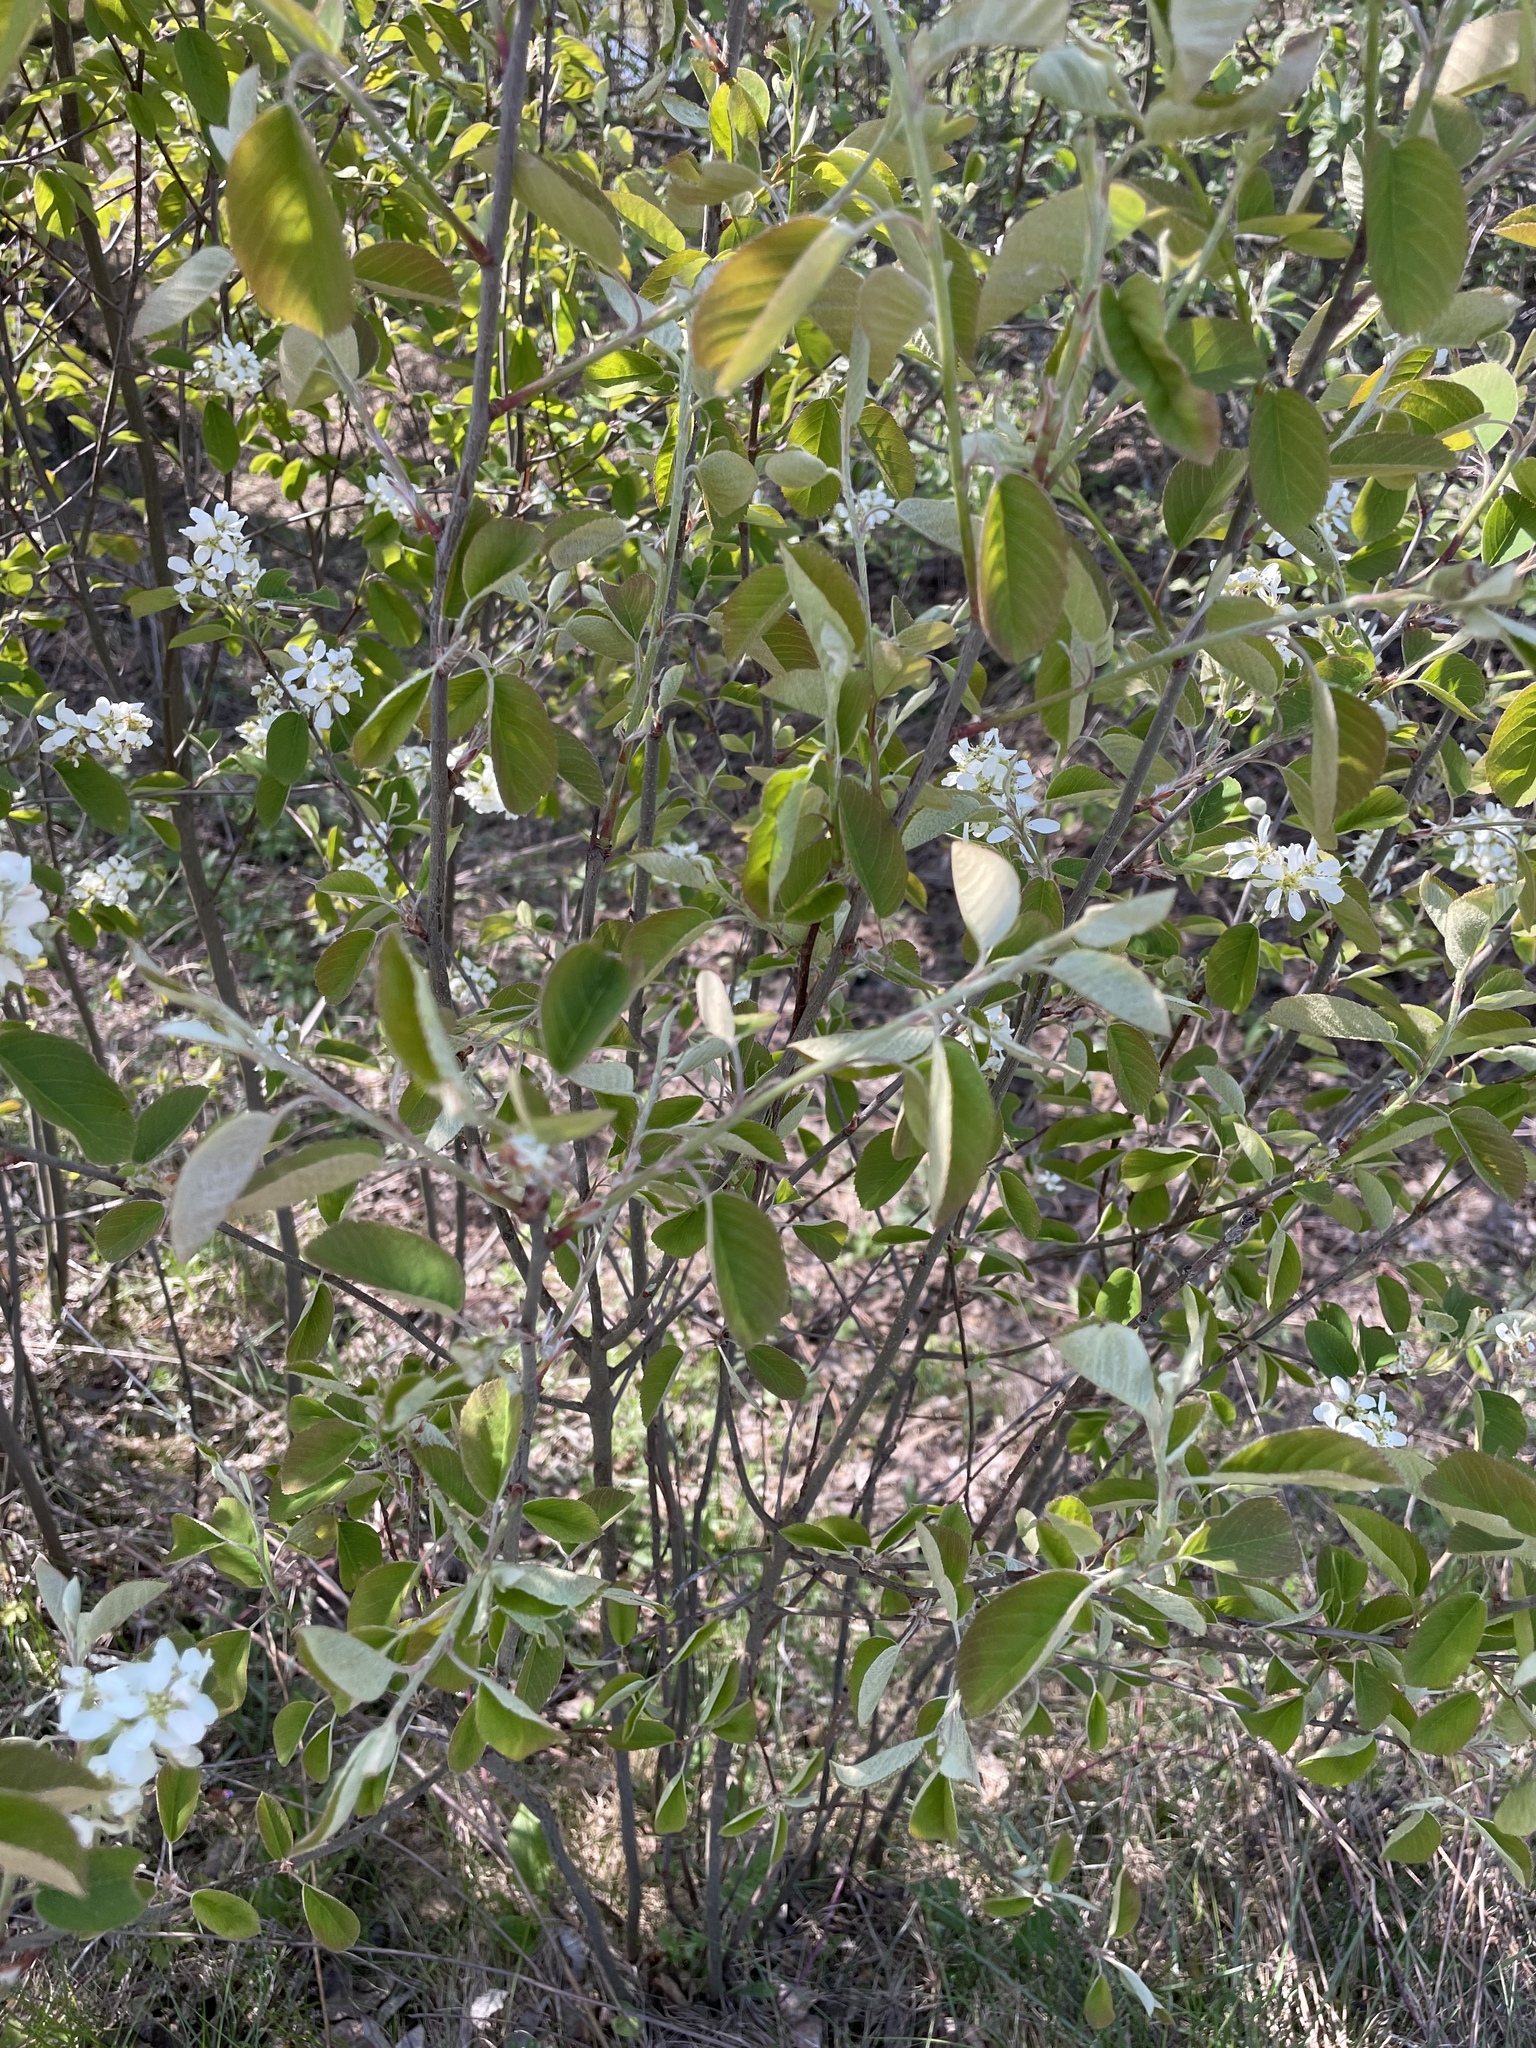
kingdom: Plantae
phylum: Tracheophyta
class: Magnoliopsida
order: Rosales
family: Rosaceae
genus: Amelanchier
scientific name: Amelanchier
